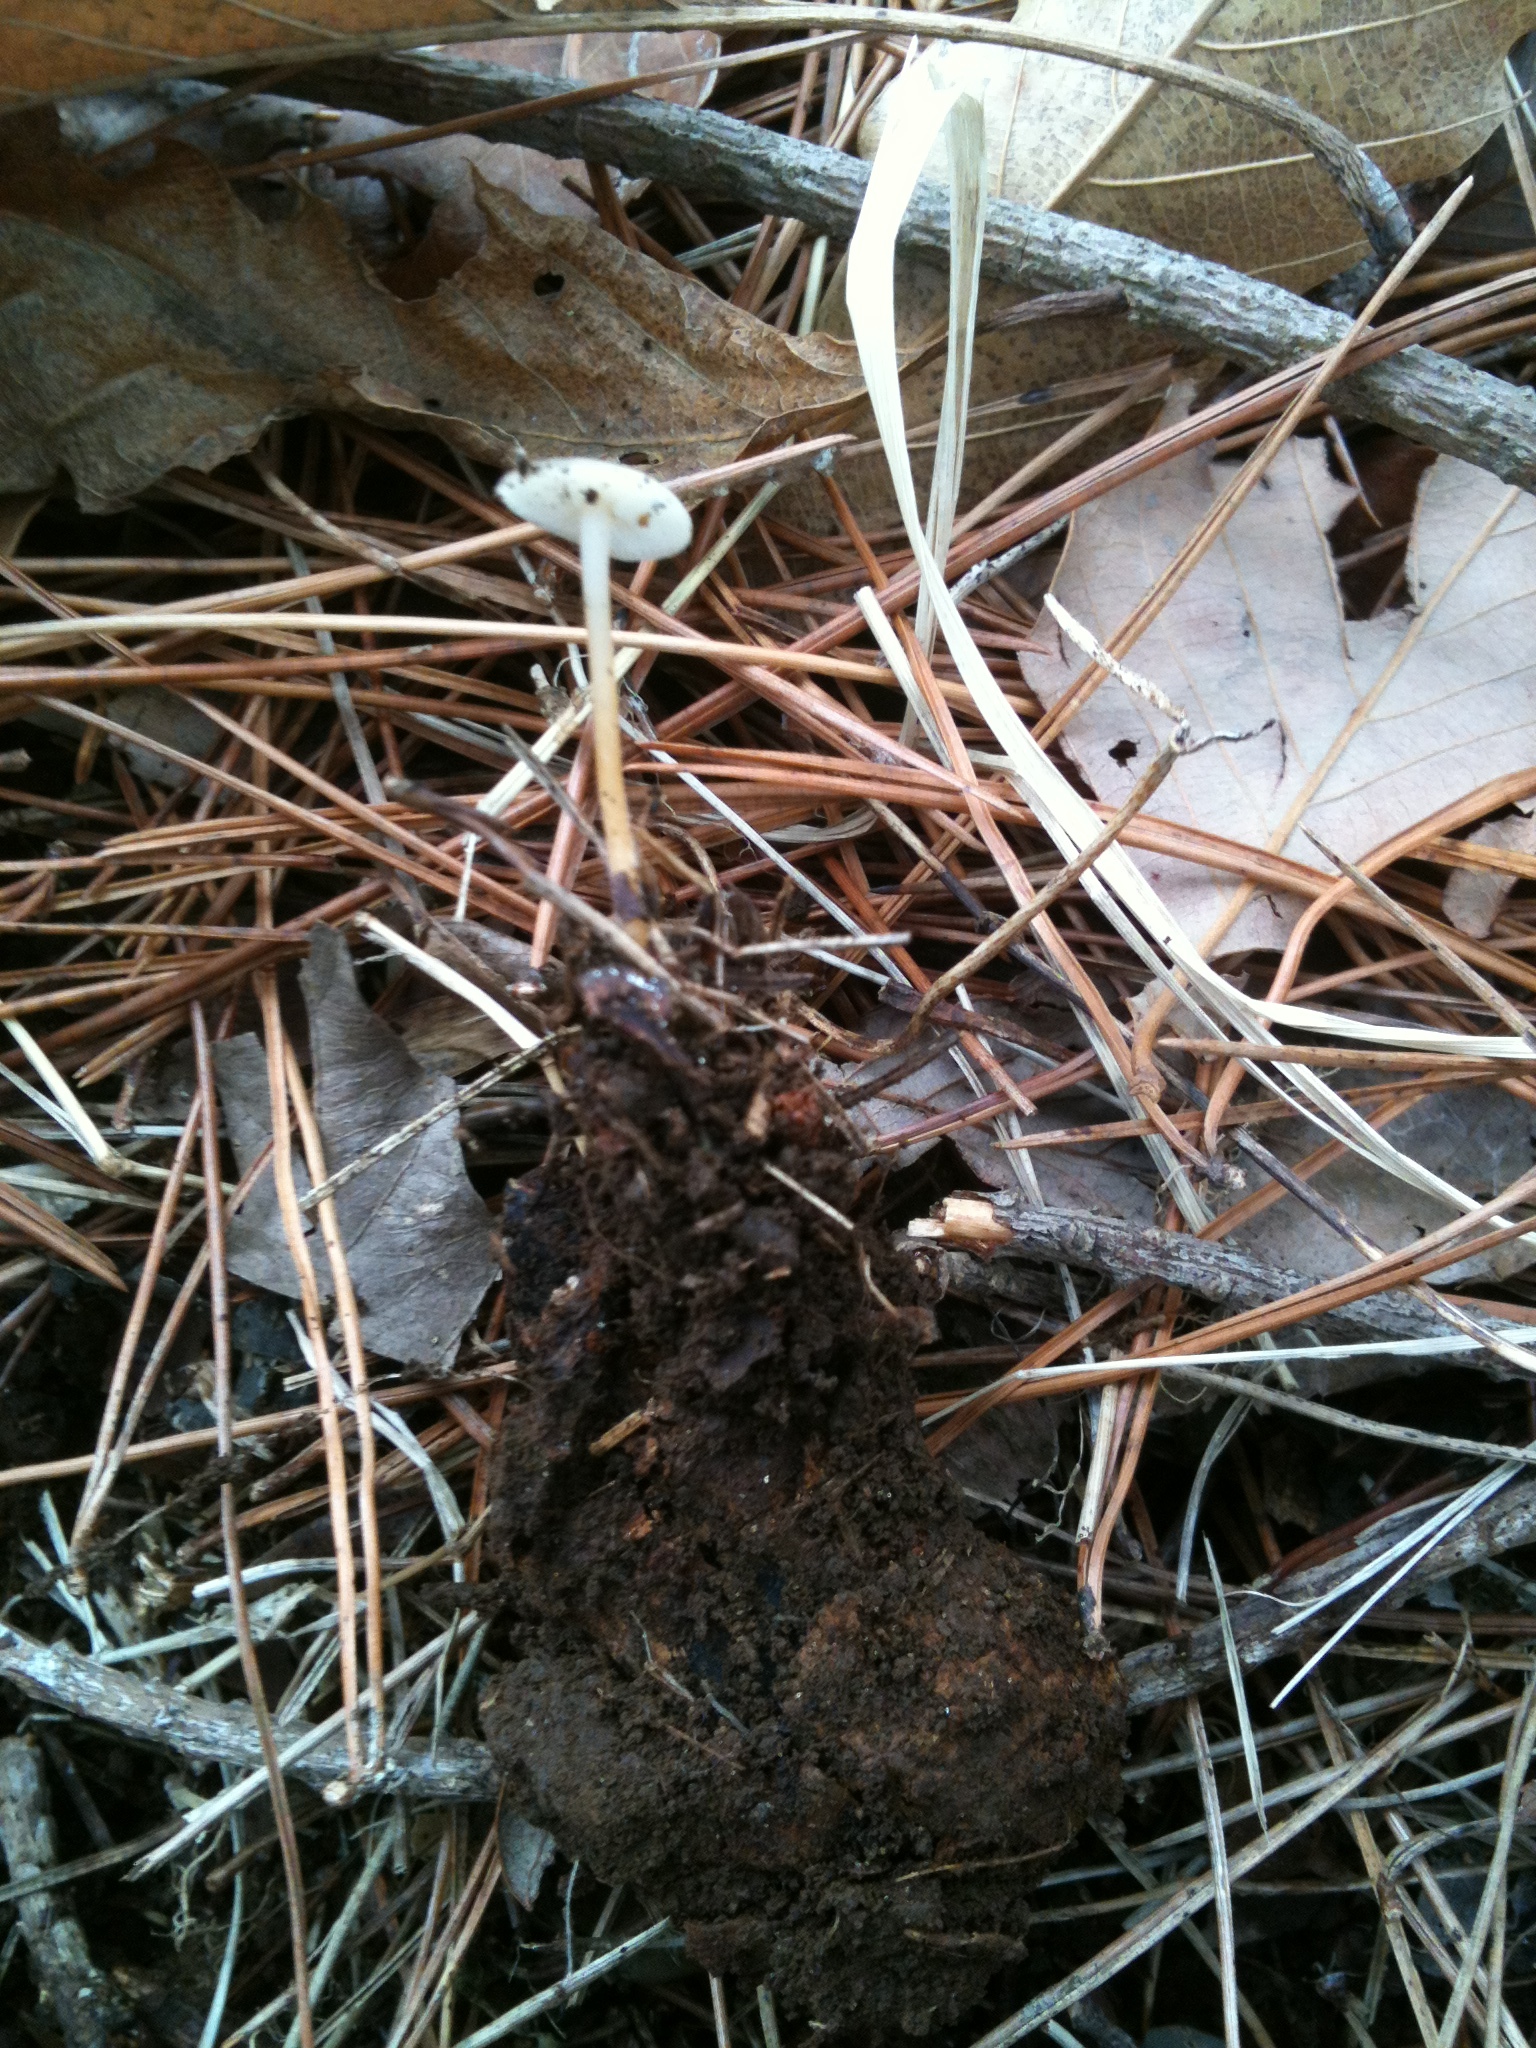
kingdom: Fungi
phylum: Basidiomycota
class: Agaricomycetes
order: Agaricales
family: Physalacriaceae
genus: Strobilurus
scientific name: Strobilurus stephanocystis
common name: Russian conecap
